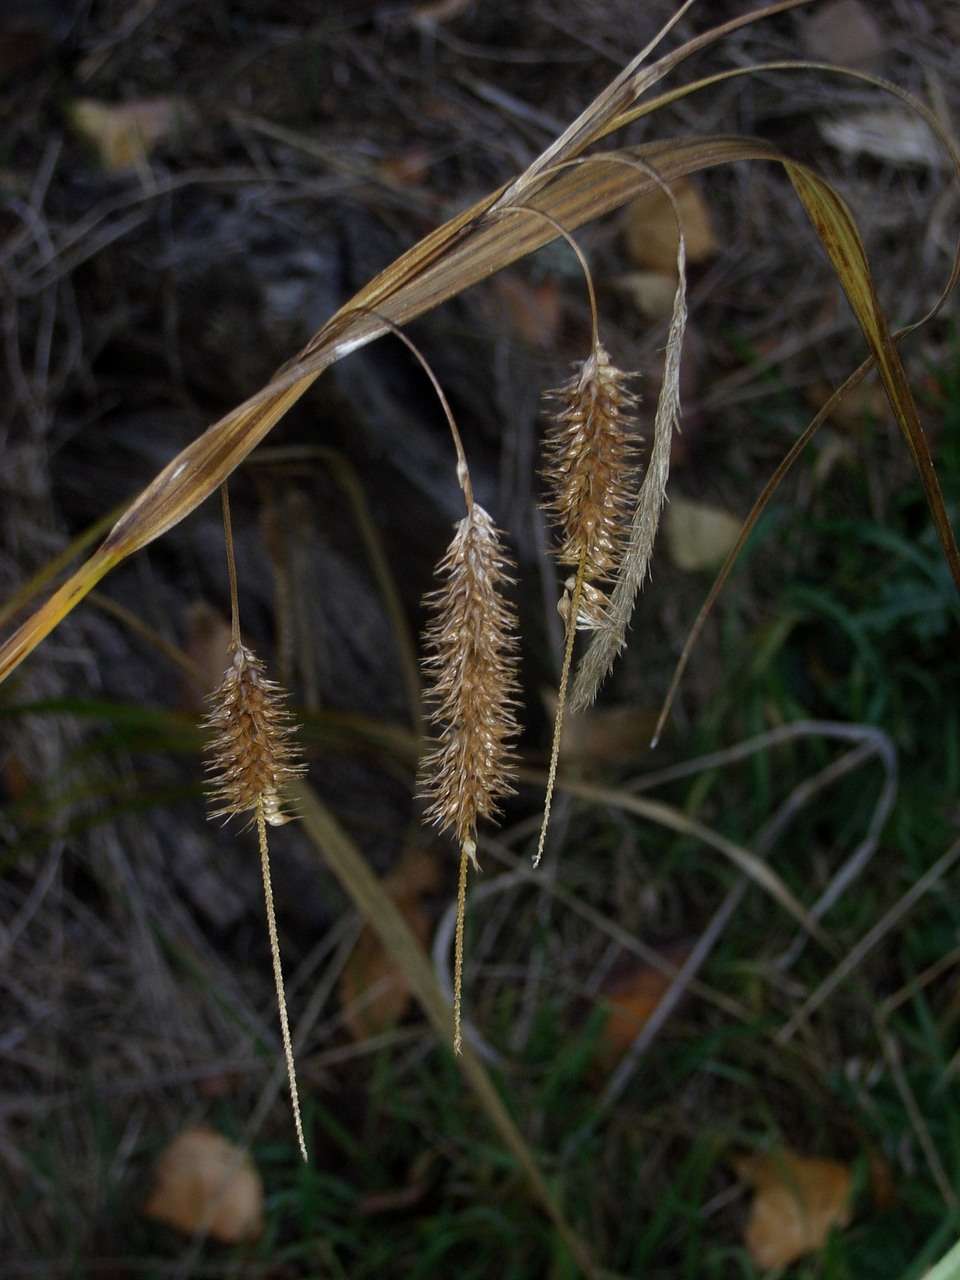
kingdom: Plantae
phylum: Tracheophyta
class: Liliopsida
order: Poales
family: Cyperaceae
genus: Carex
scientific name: Carex fascicularis
